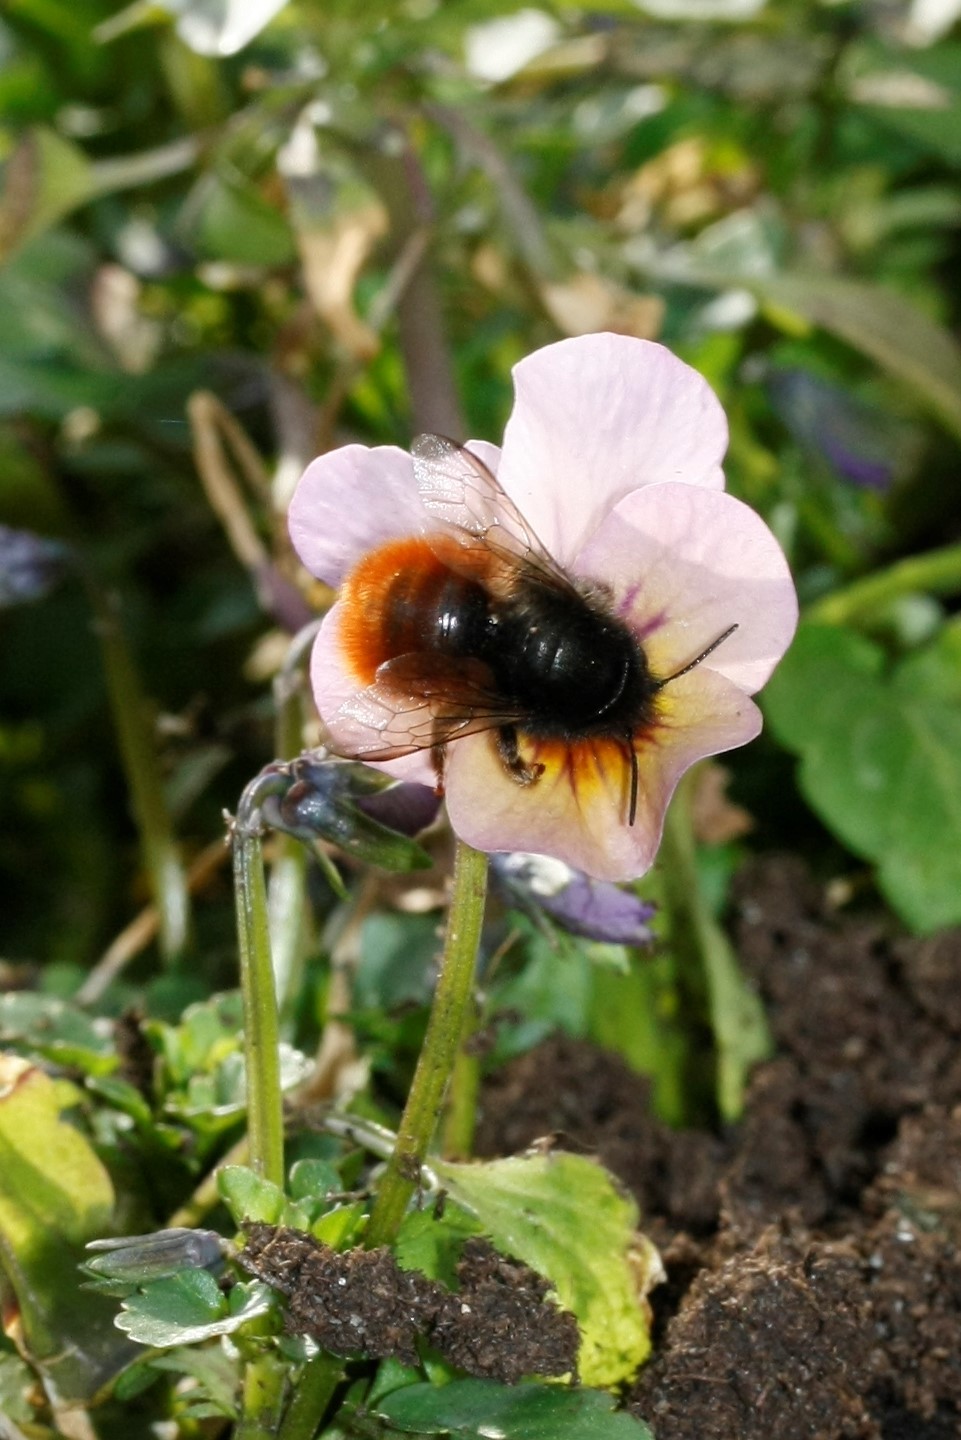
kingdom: Animalia
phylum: Arthropoda
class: Insecta
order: Hymenoptera
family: Megachilidae
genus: Osmia
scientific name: Osmia cornuta
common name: Mason bee
